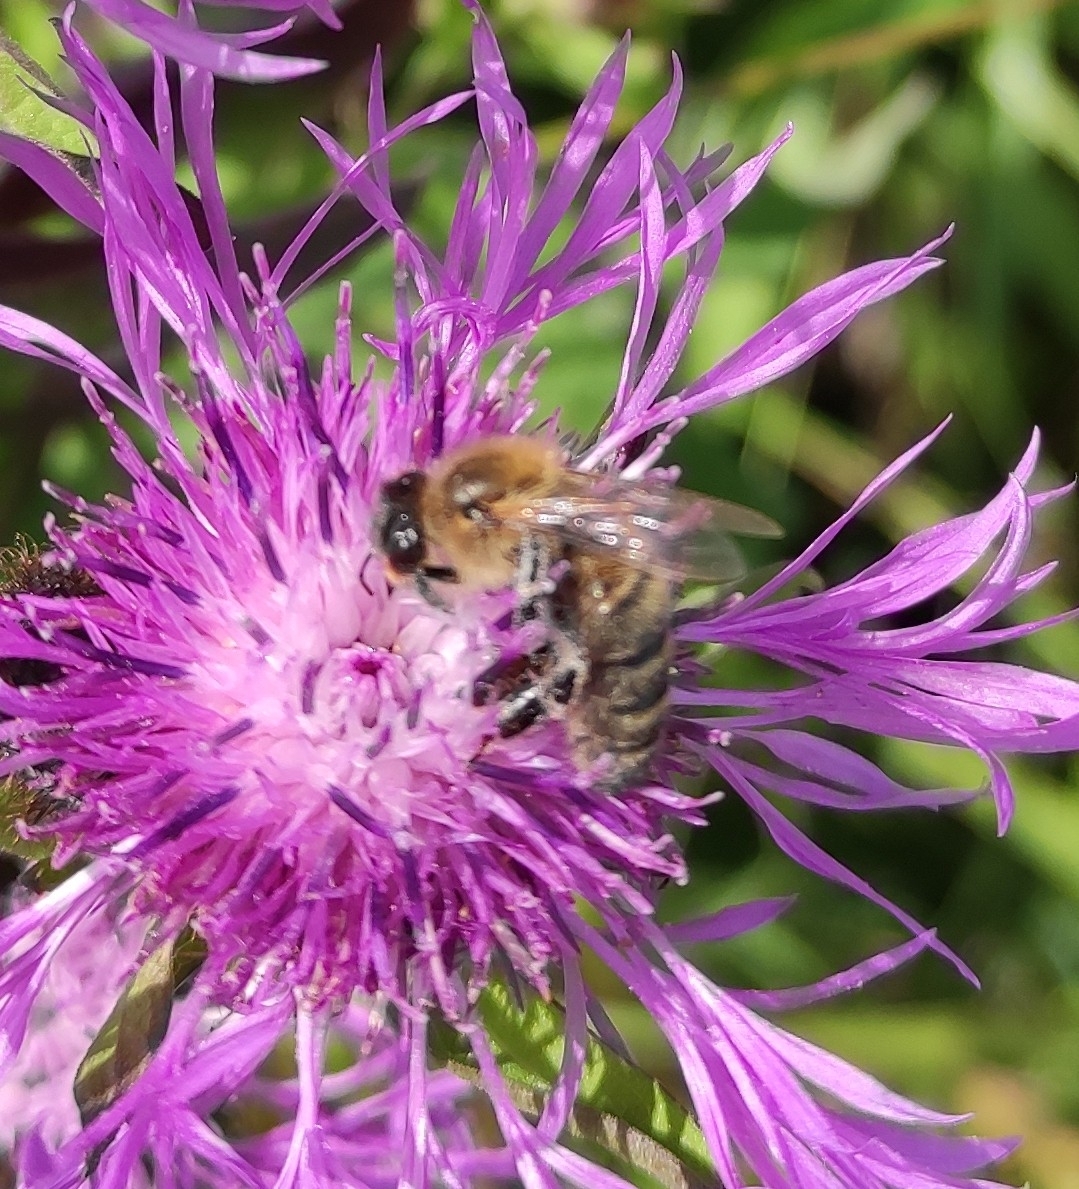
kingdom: Animalia
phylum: Arthropoda
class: Insecta
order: Hymenoptera
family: Apidae
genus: Apis
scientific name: Apis mellifera
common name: Honey bee
